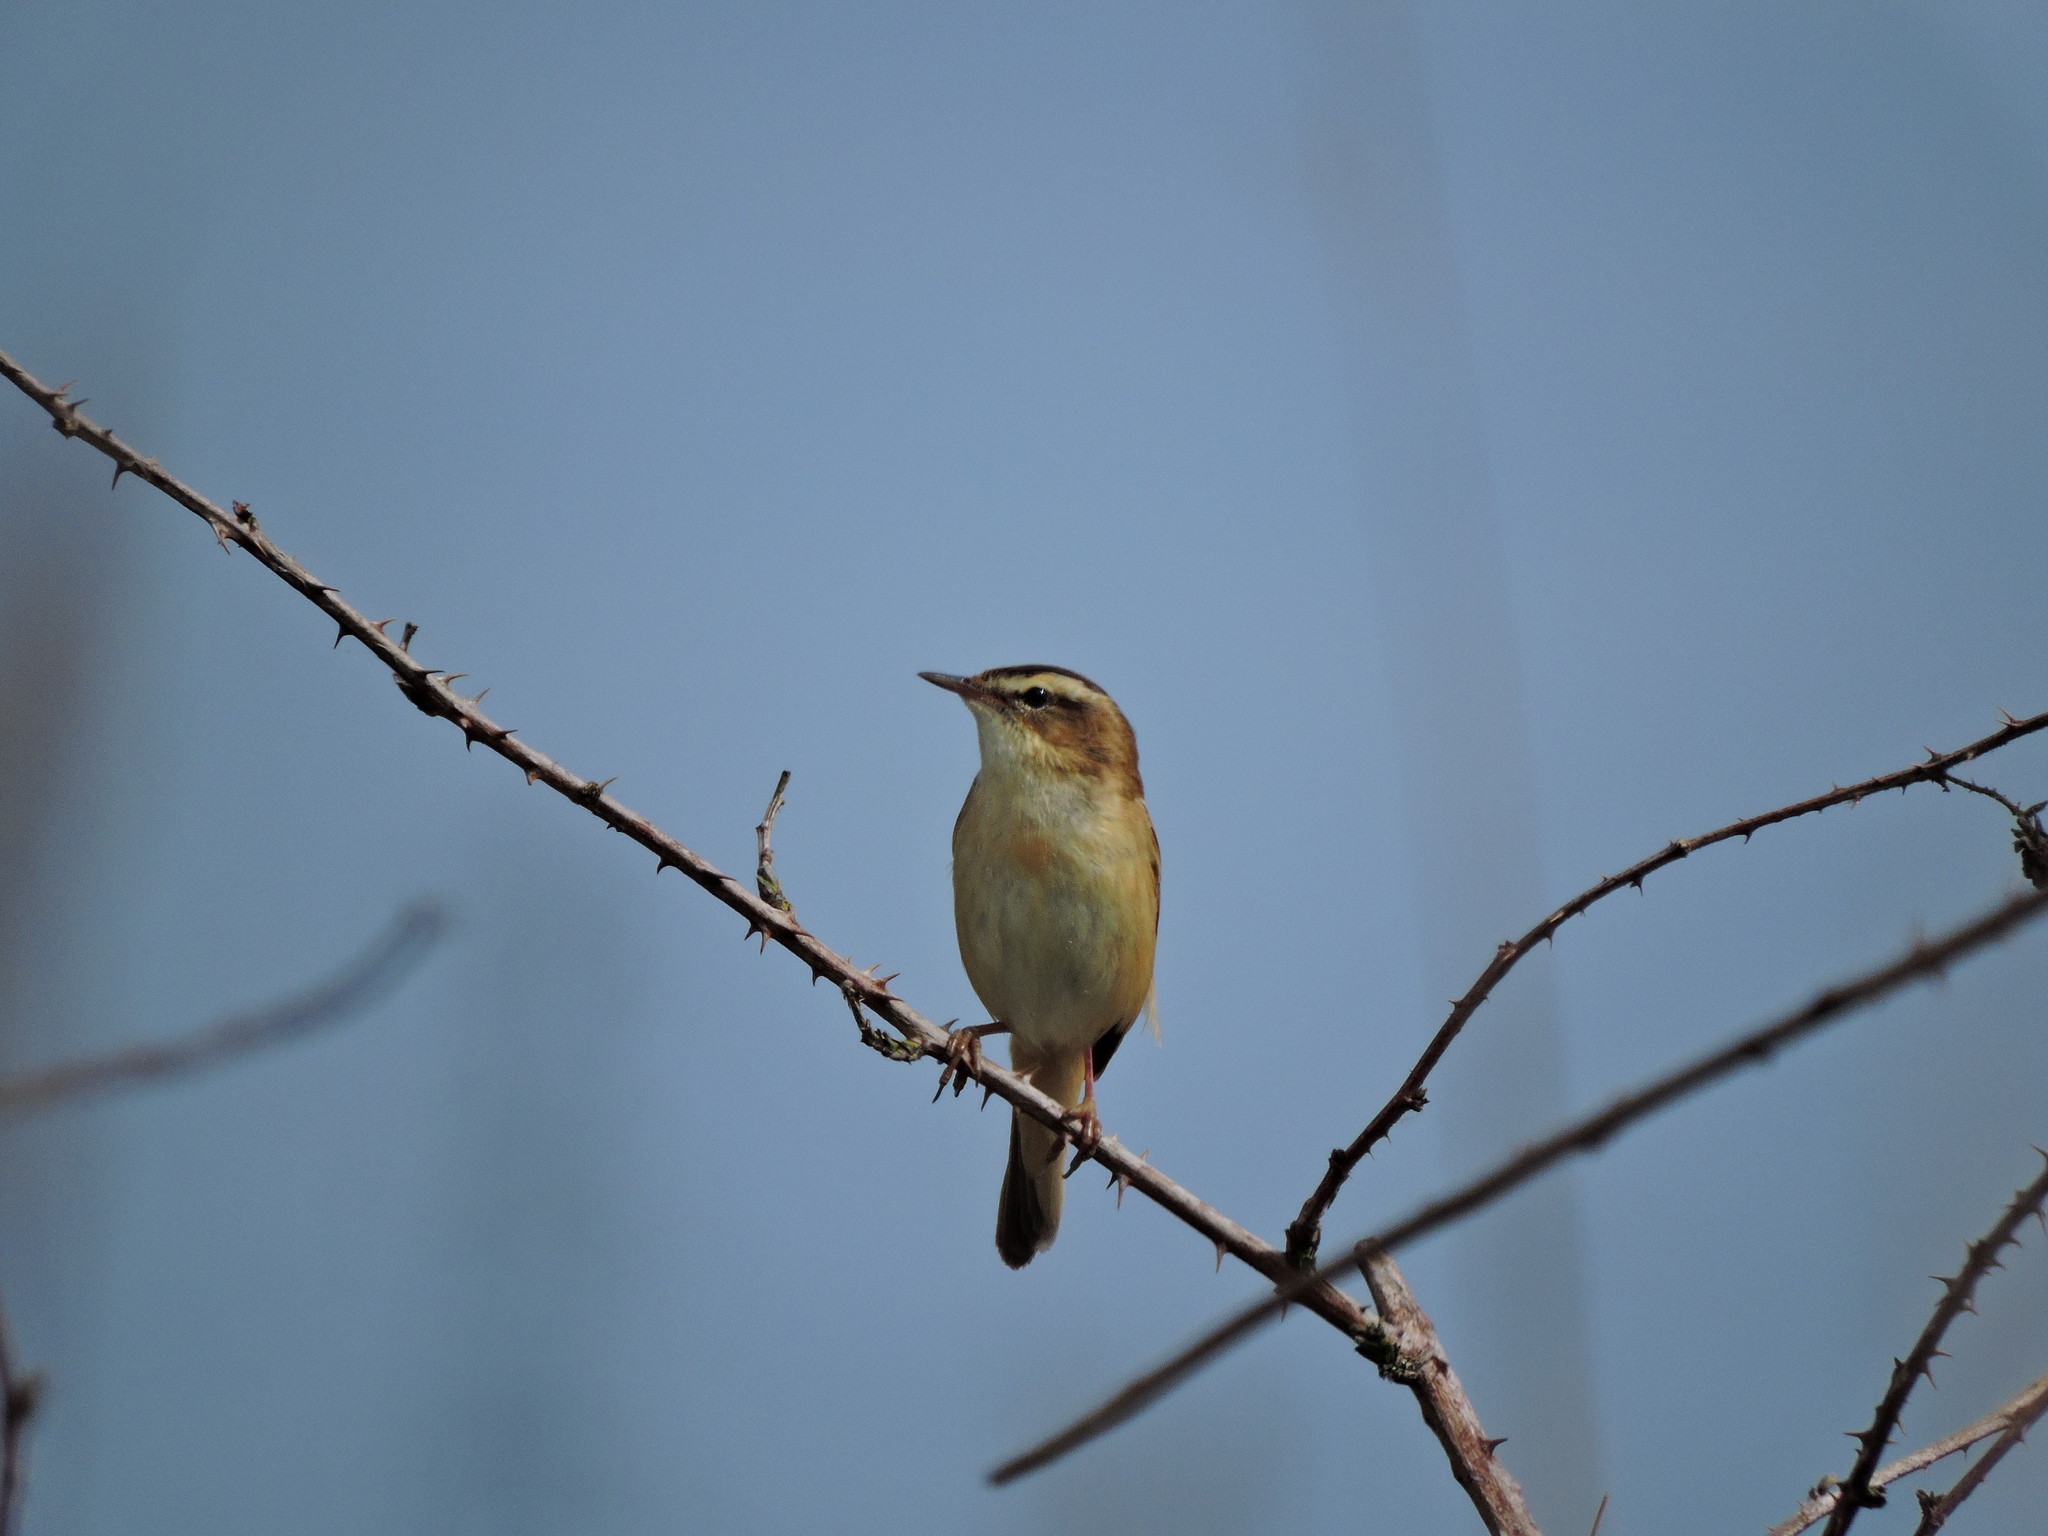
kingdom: Animalia
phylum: Chordata
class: Aves
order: Passeriformes
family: Acrocephalidae
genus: Acrocephalus
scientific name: Acrocephalus schoenobaenus
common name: Sedge warbler
